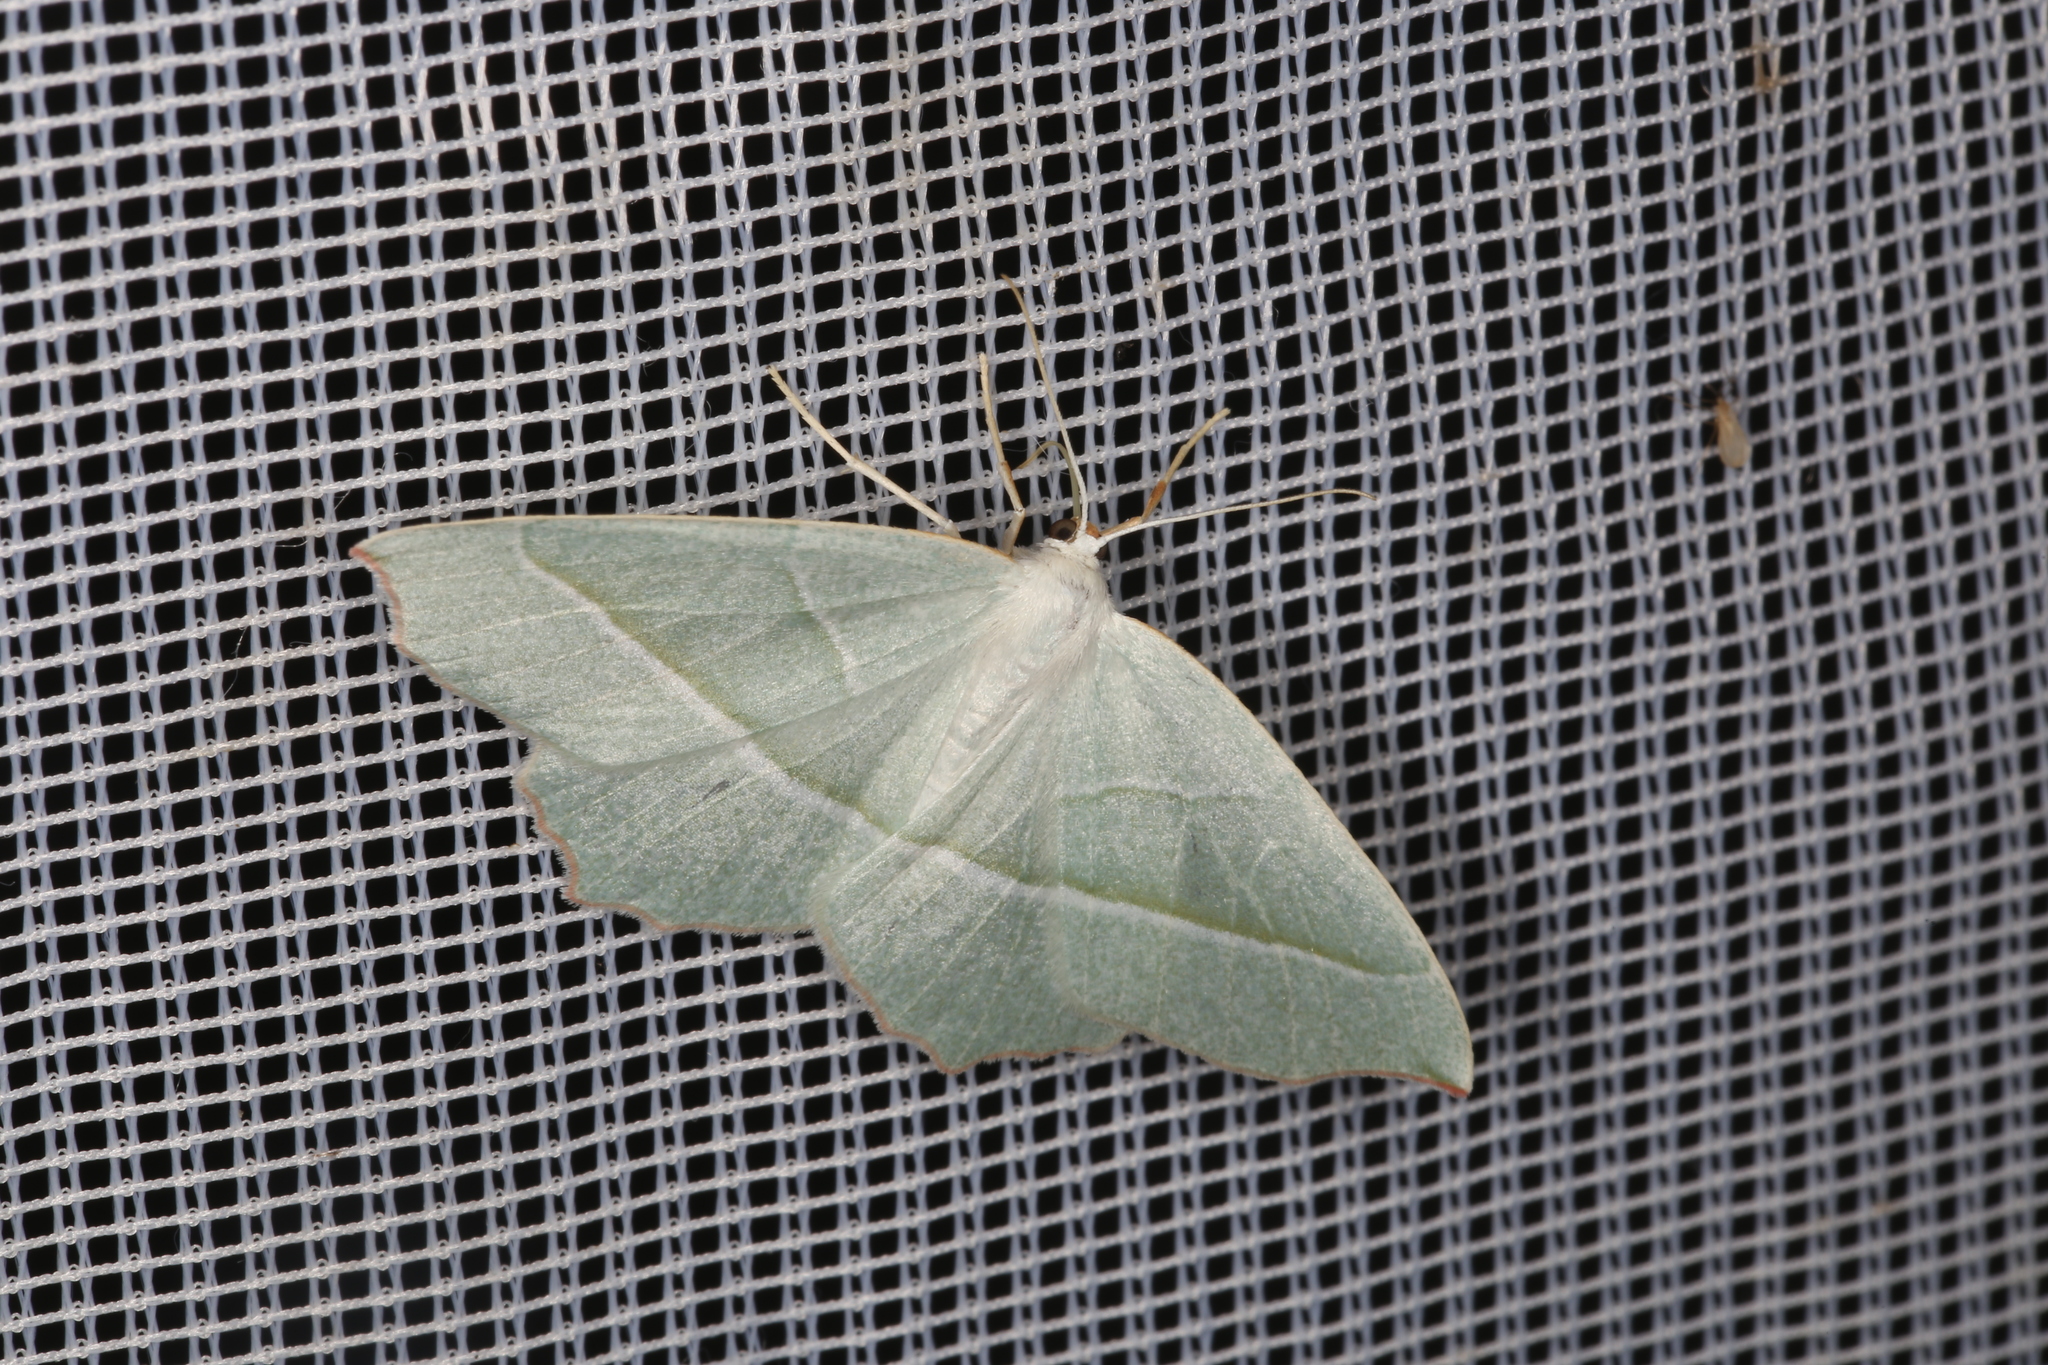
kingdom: Animalia
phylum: Arthropoda
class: Insecta
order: Lepidoptera
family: Geometridae
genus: Campaea
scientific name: Campaea margaritaria
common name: Light emerald
